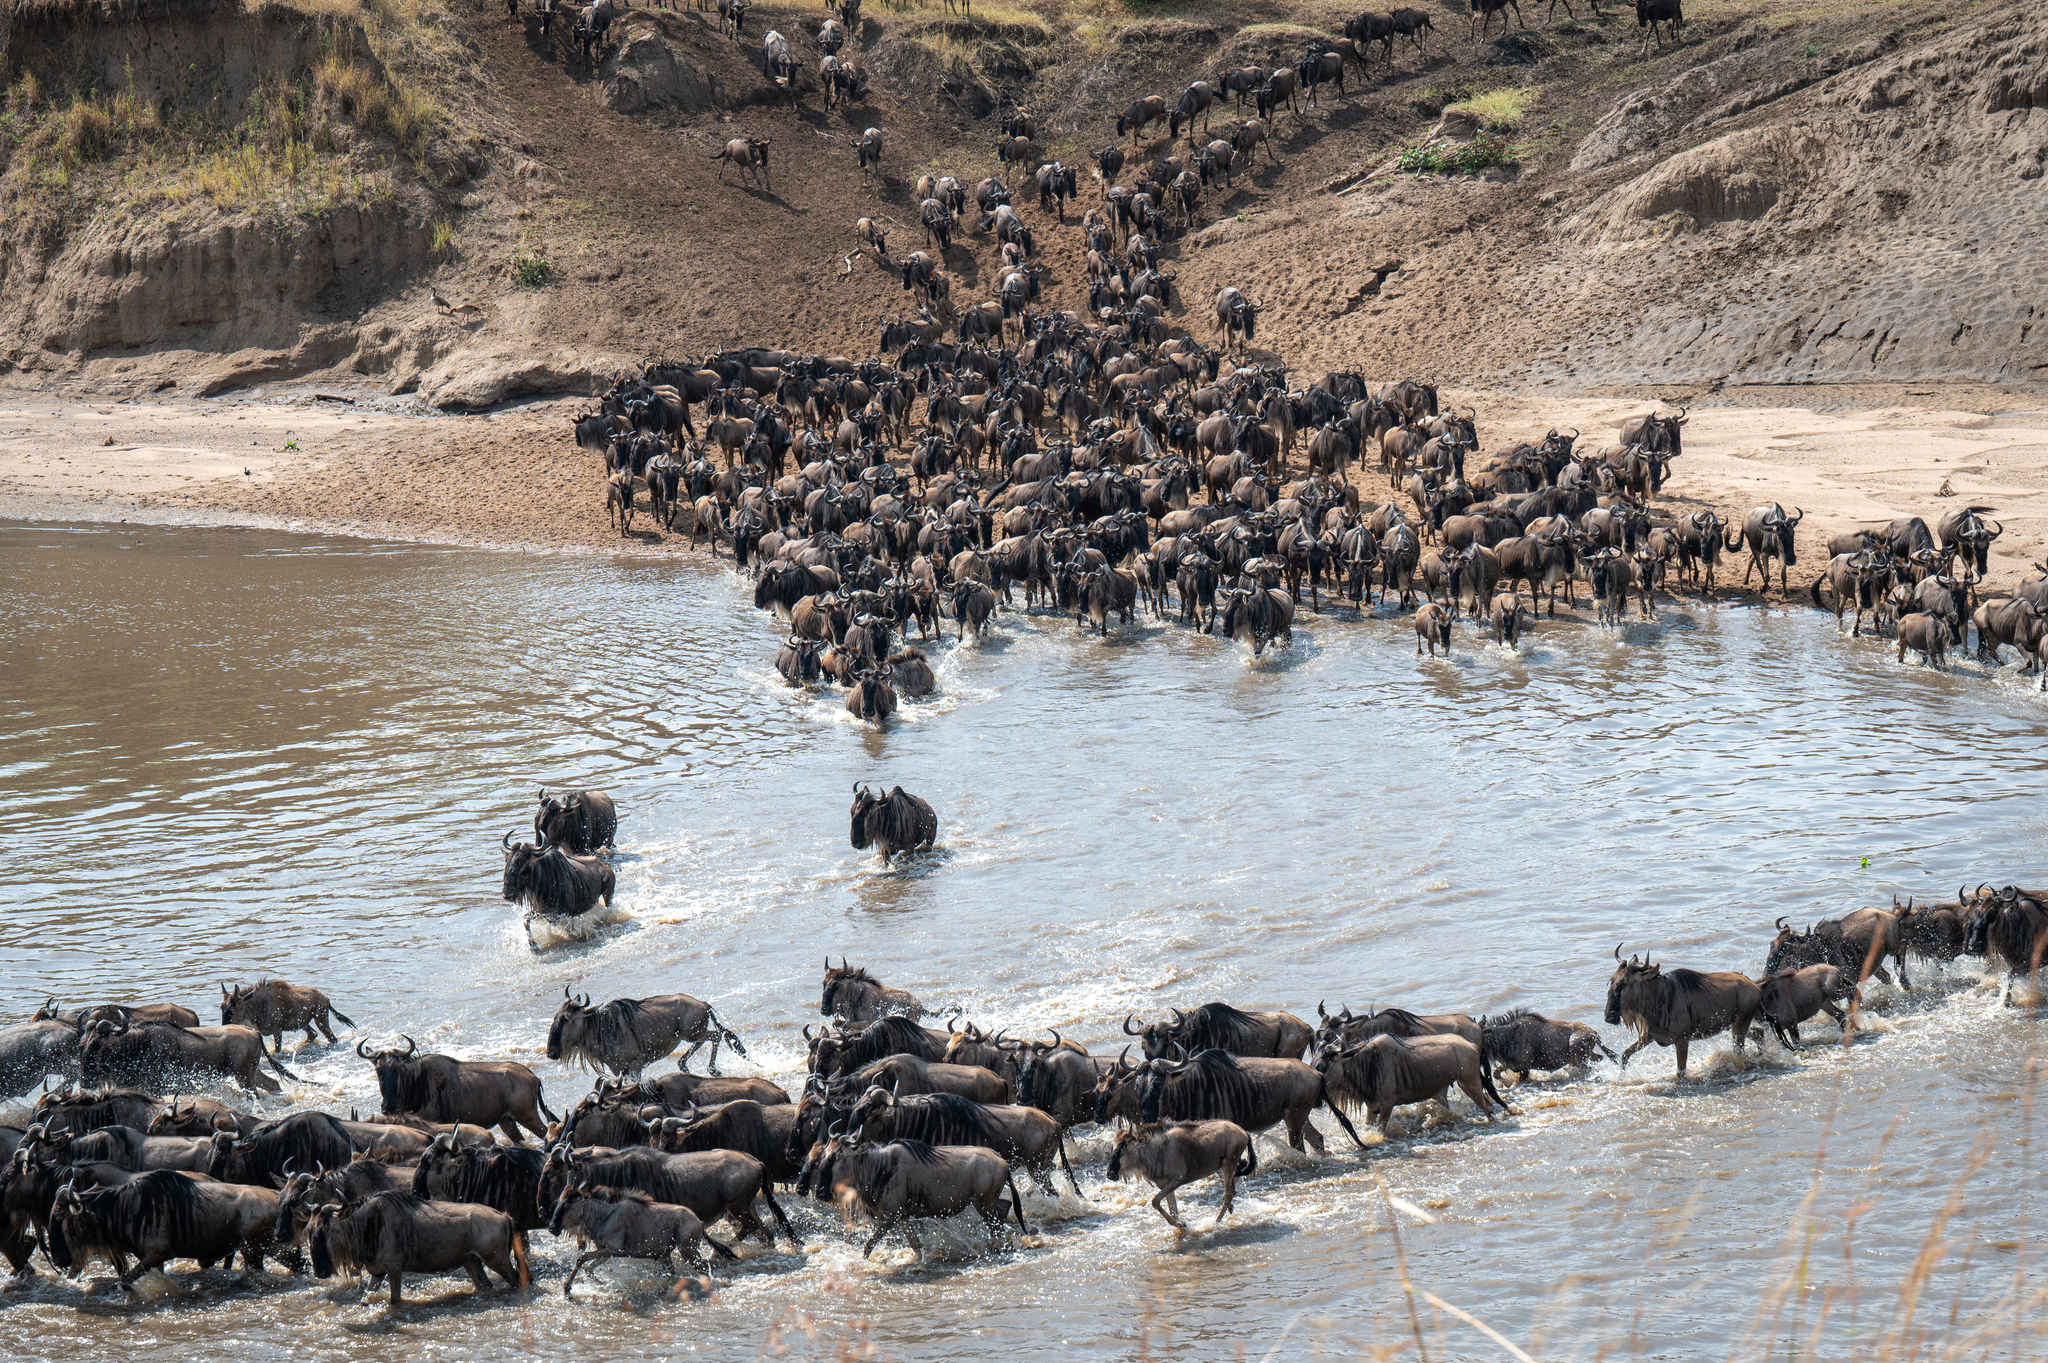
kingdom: Animalia
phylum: Chordata
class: Mammalia
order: Artiodactyla
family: Bovidae
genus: Connochaetes
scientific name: Connochaetes taurinus
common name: Blue wildebeest
